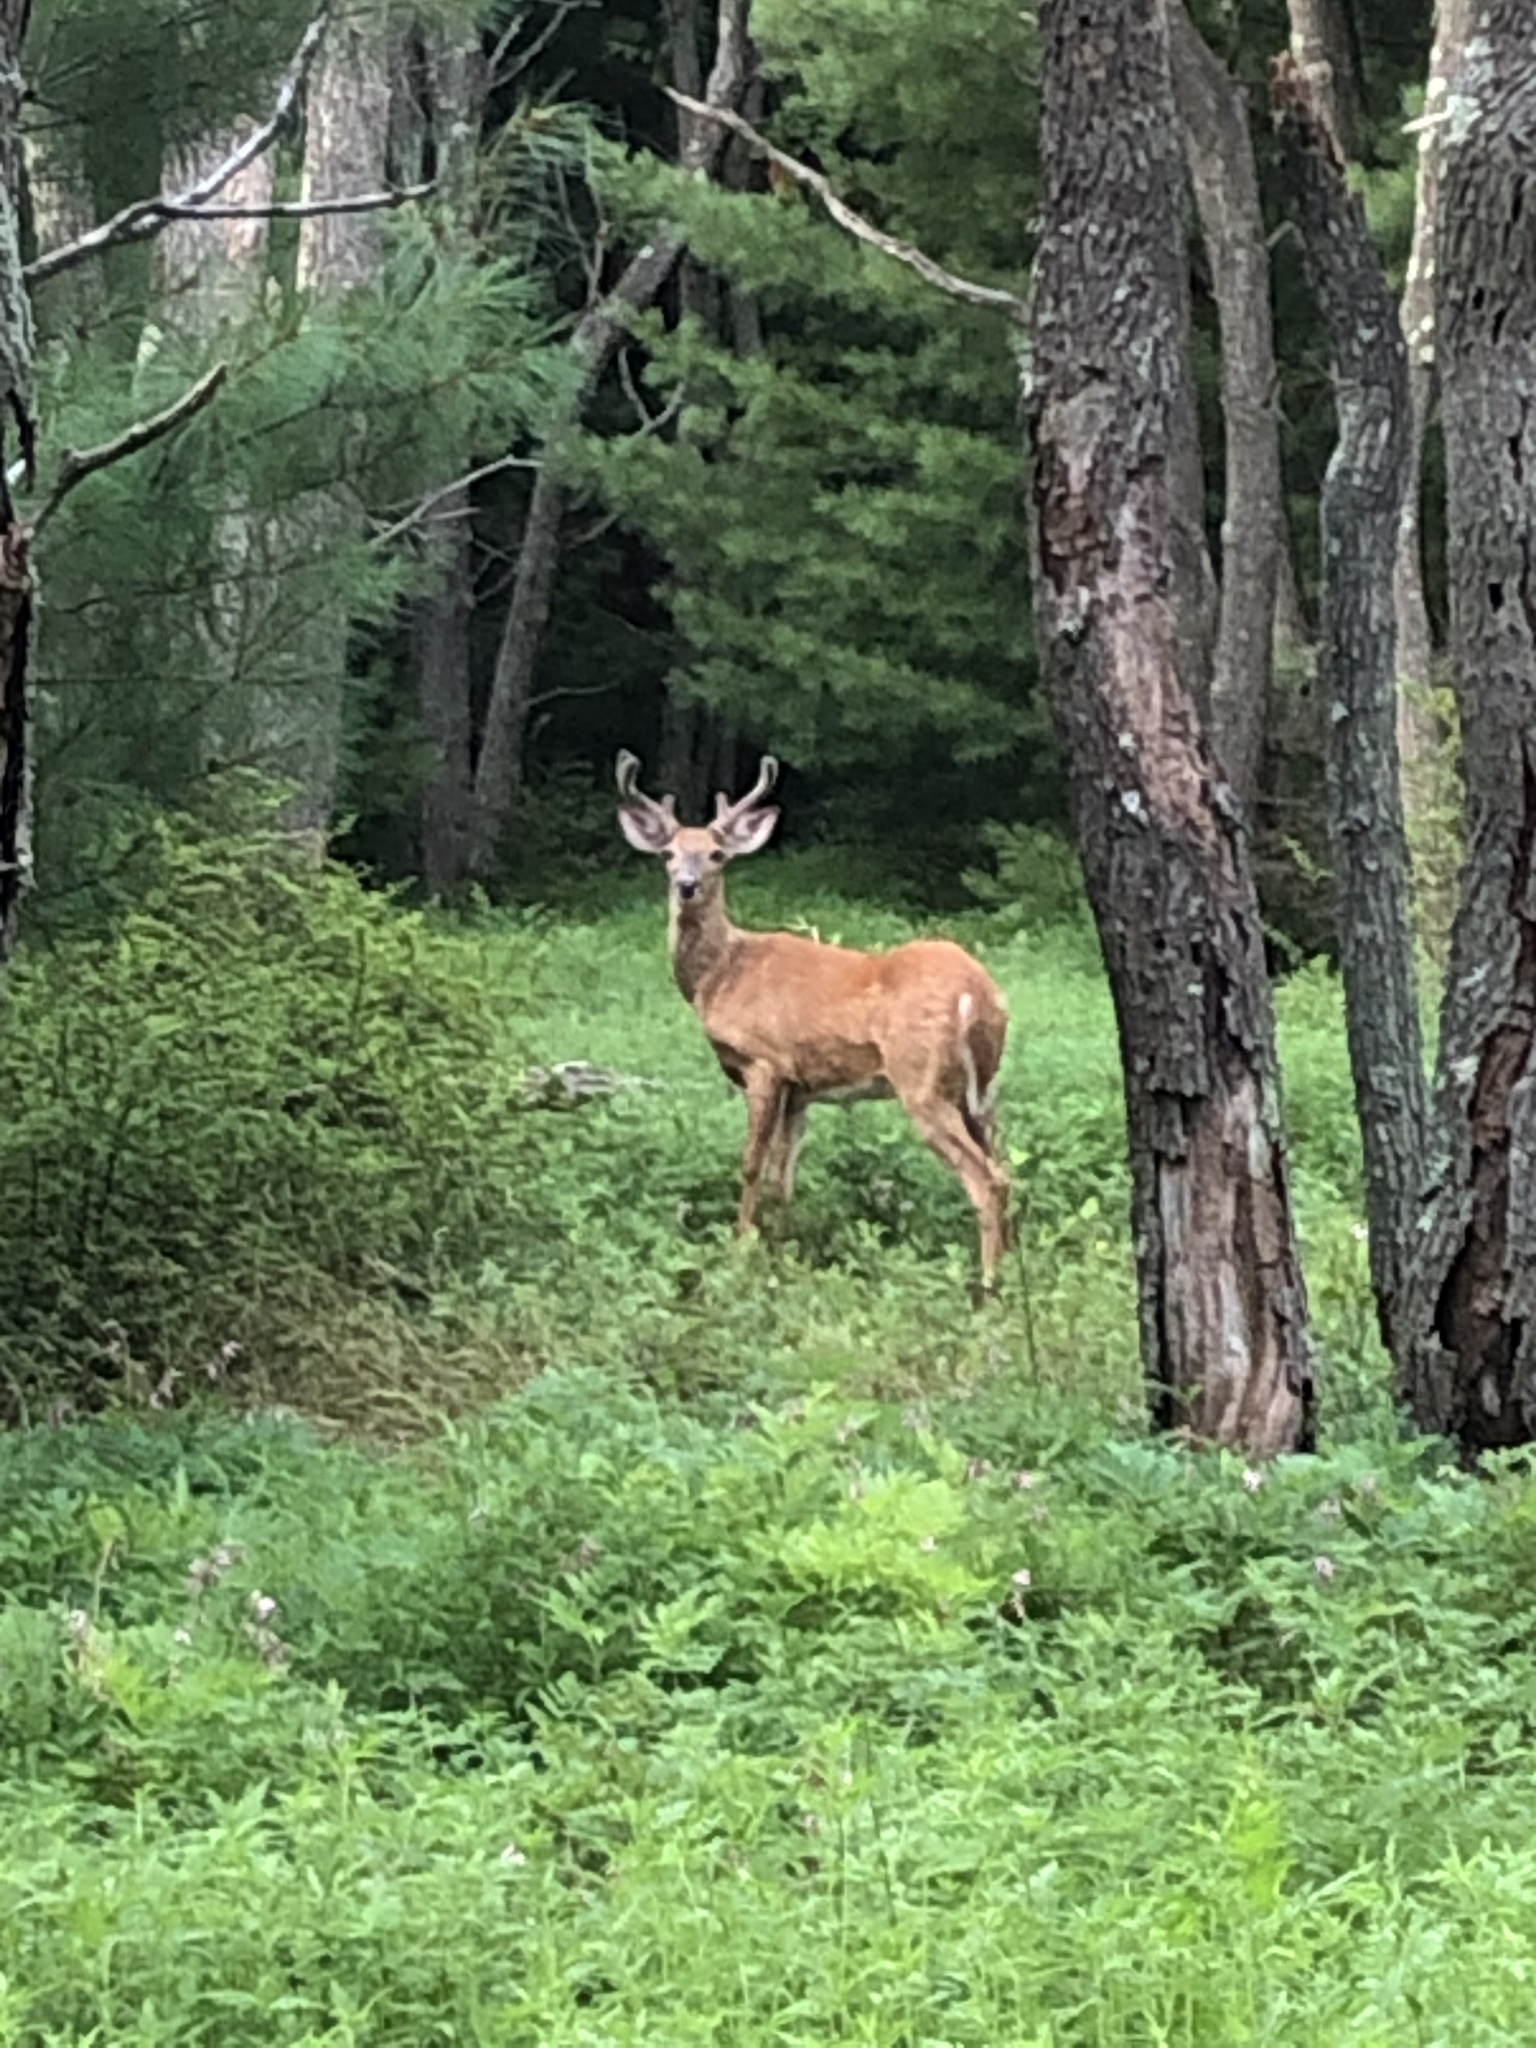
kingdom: Animalia
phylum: Chordata
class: Mammalia
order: Artiodactyla
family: Cervidae
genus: Odocoileus
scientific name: Odocoileus virginianus
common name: White-tailed deer
